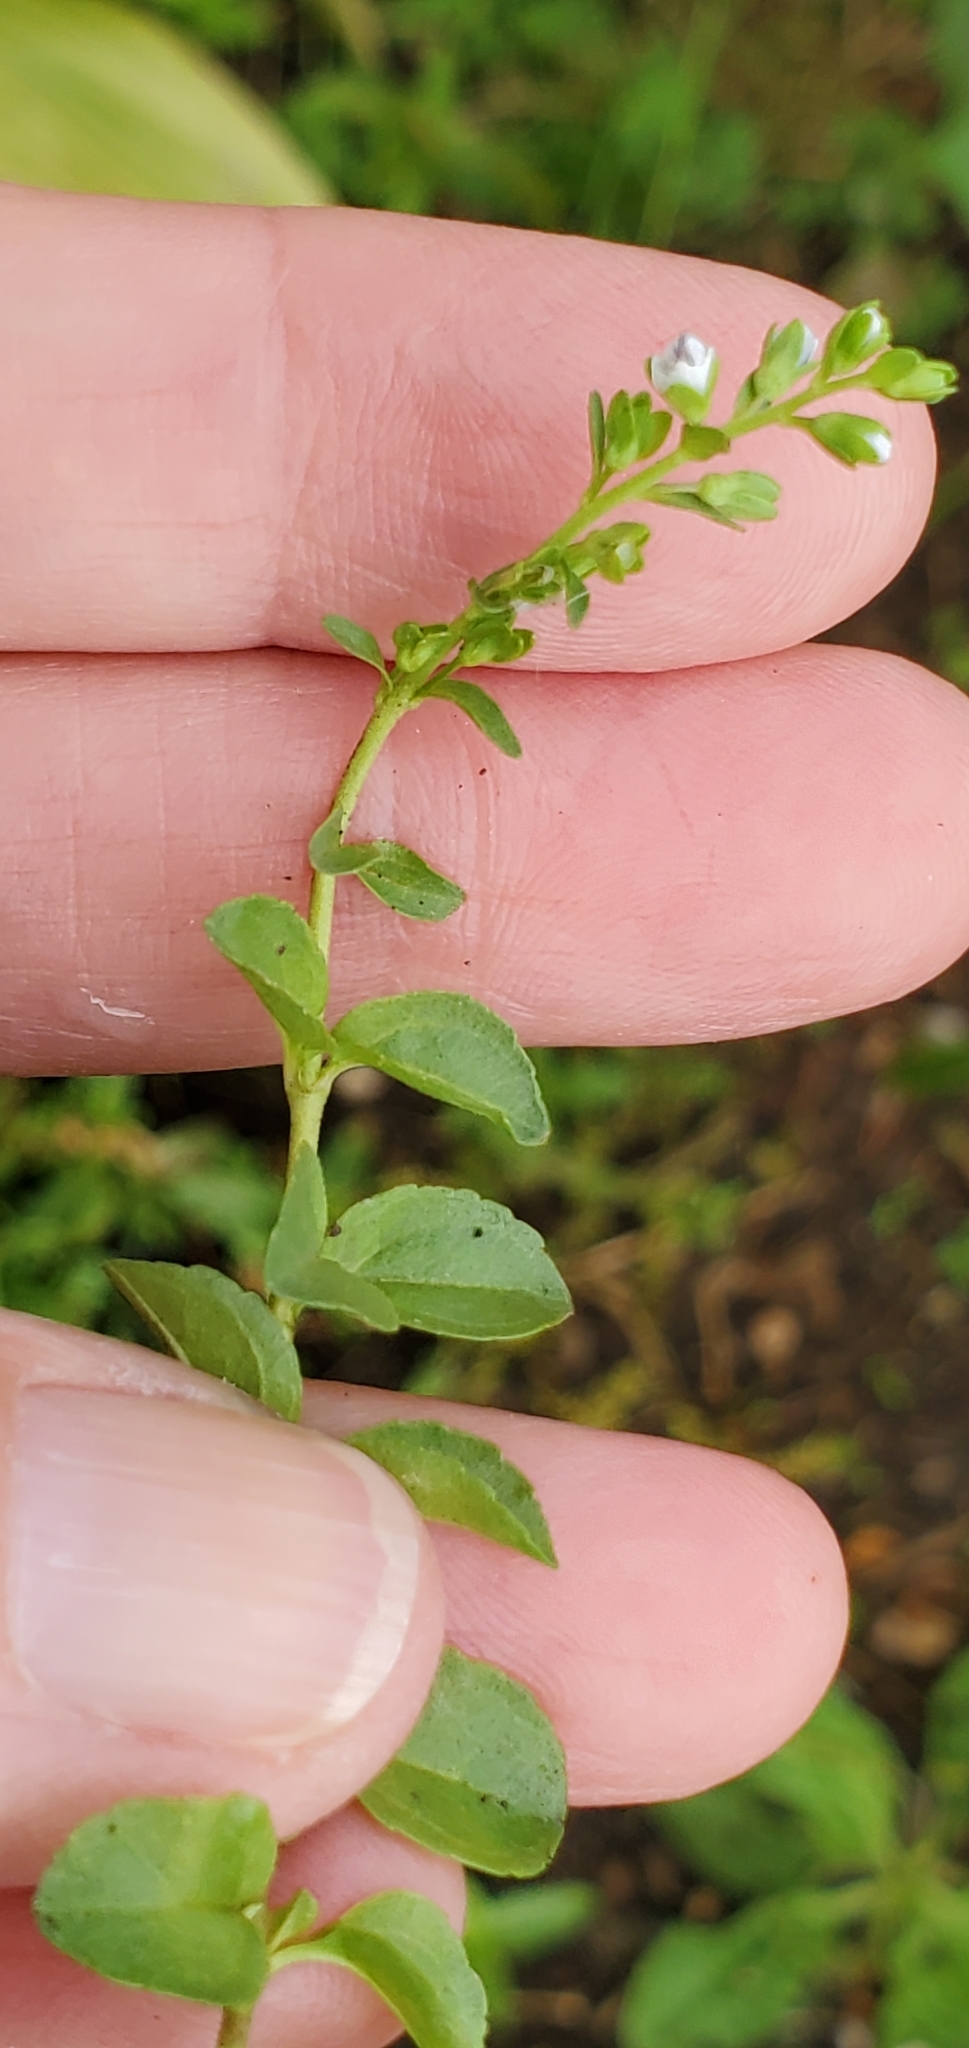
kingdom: Plantae
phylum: Tracheophyta
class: Magnoliopsida
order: Lamiales
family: Plantaginaceae
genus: Veronica
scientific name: Veronica serpyllifolia
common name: Thyme-leaved speedwell
